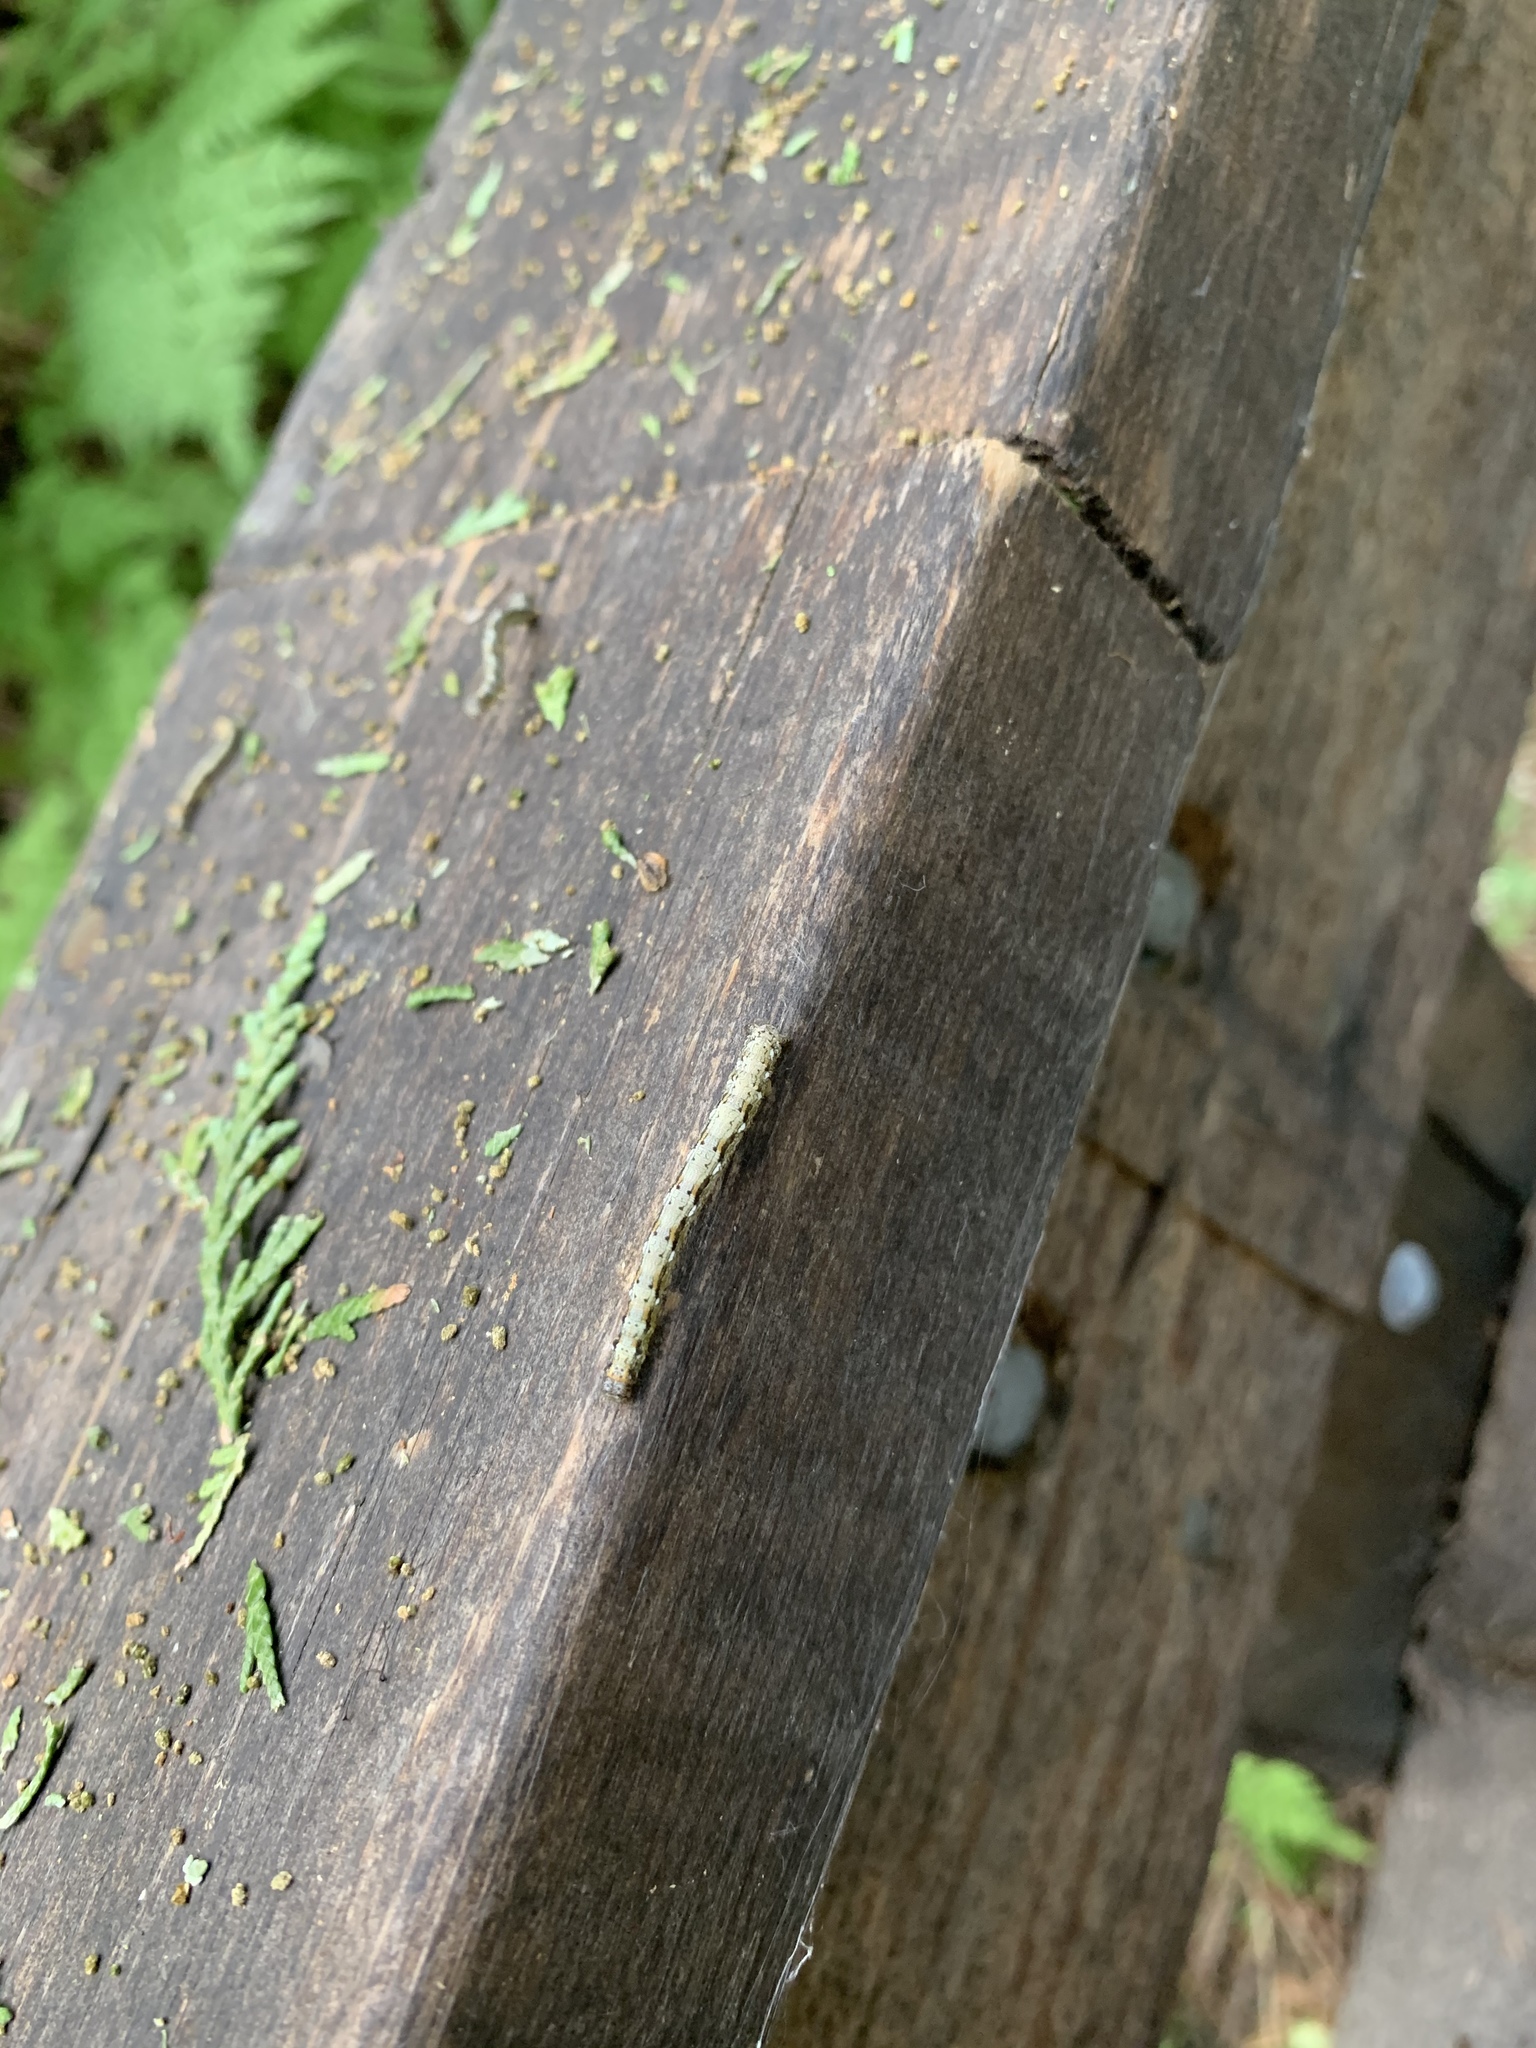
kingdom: Animalia
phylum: Arthropoda
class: Insecta
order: Lepidoptera
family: Geometridae
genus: Lambdina
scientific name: Lambdina fiscellaria
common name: Hemlock looper
